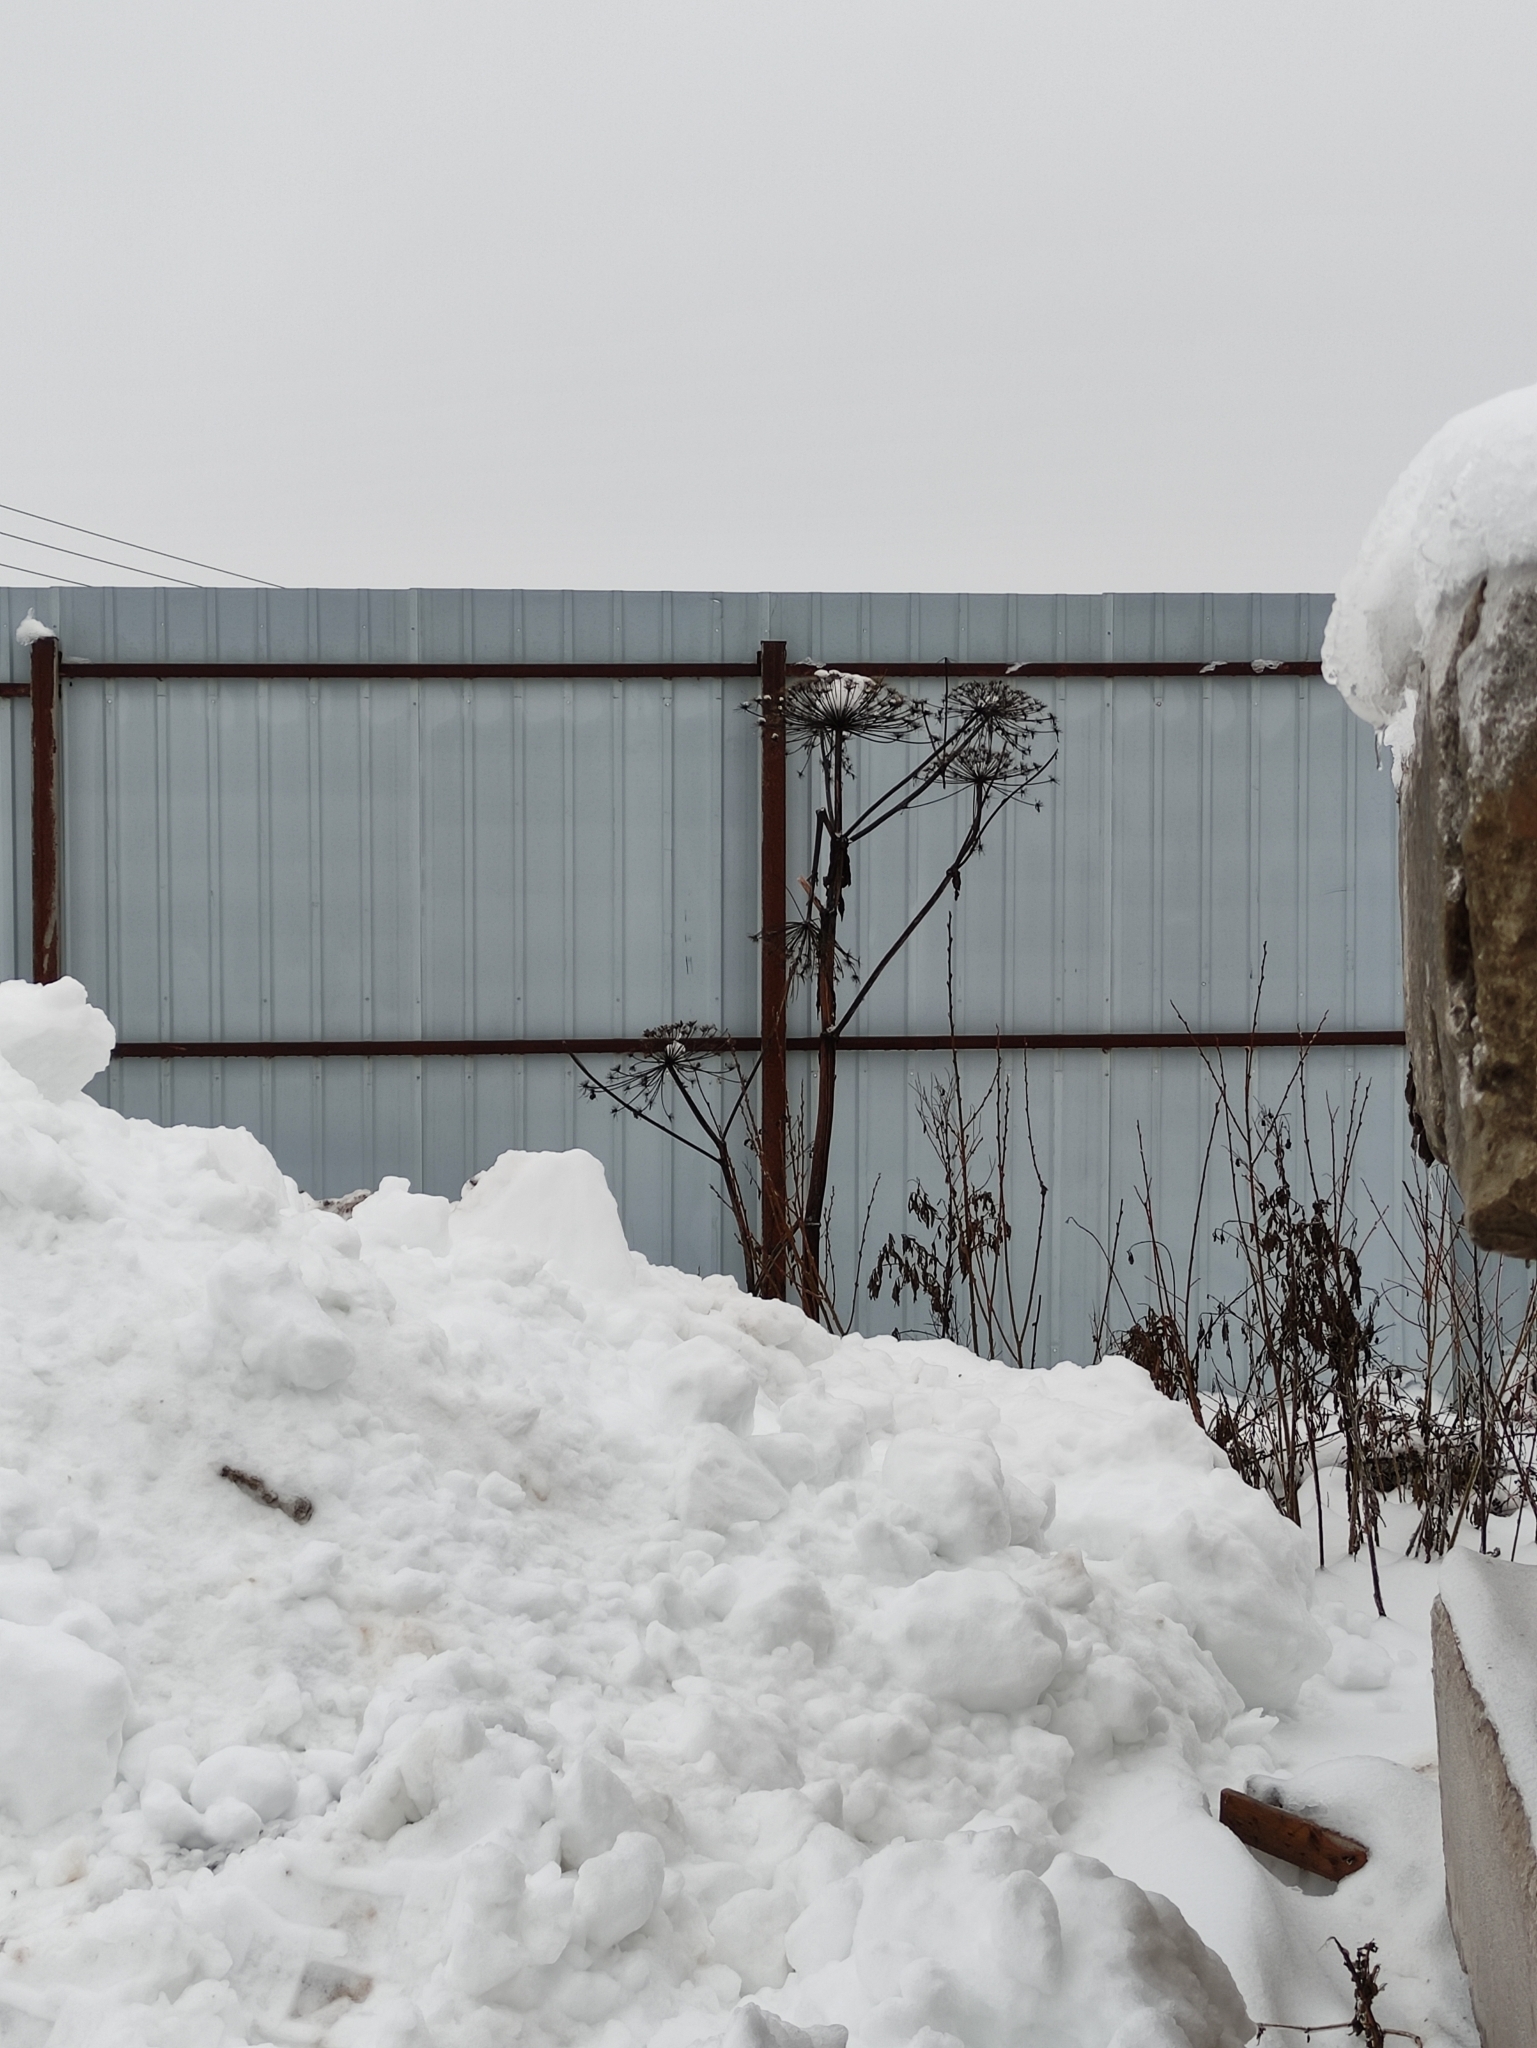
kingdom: Plantae
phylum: Tracheophyta
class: Magnoliopsida
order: Apiales
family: Apiaceae
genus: Heracleum
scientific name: Heracleum sosnowskyi
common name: Sosnowsky's hogweed
